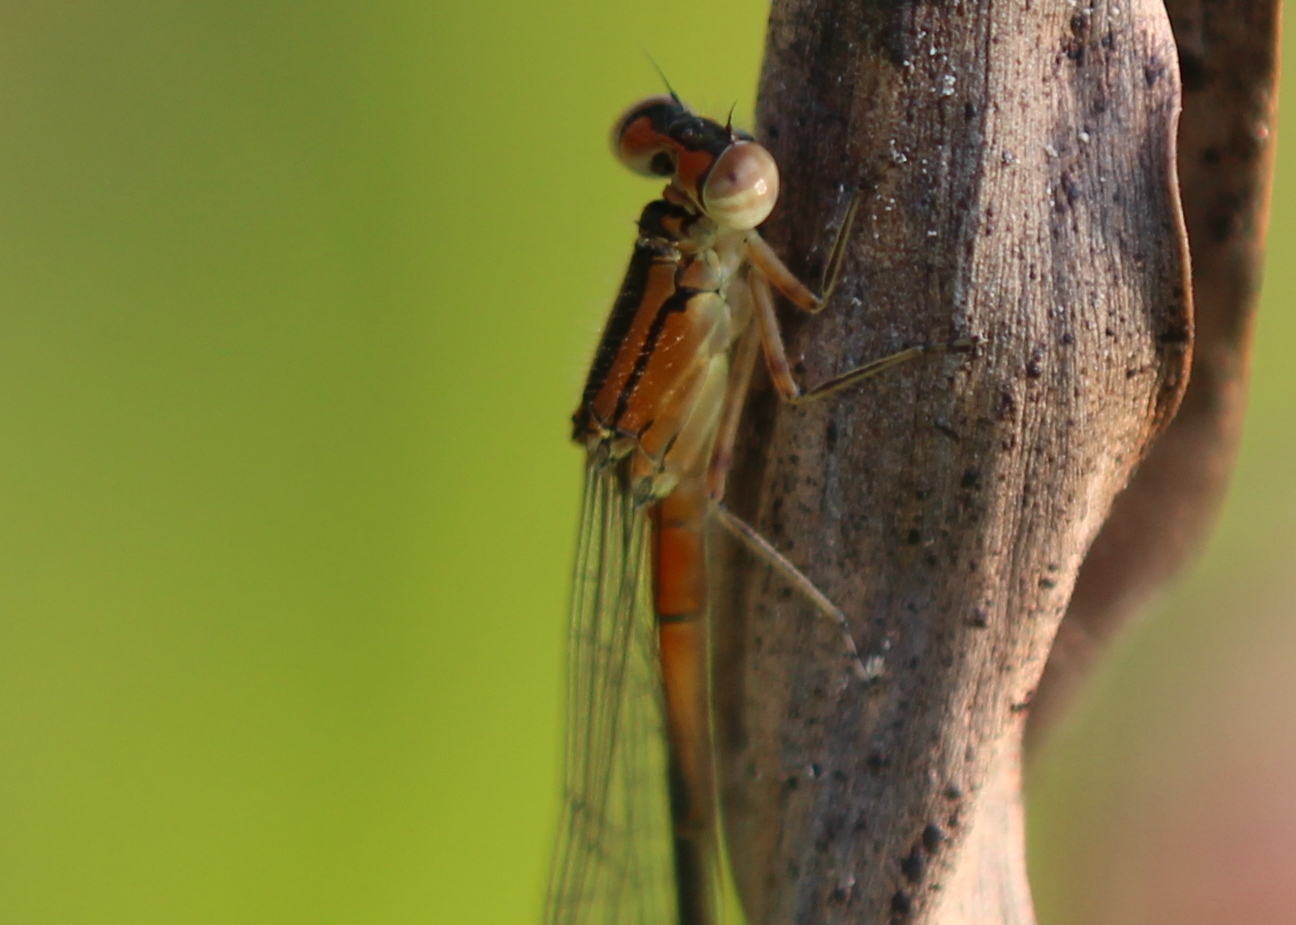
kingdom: Animalia
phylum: Arthropoda
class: Insecta
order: Odonata
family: Coenagrionidae
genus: Ischnura
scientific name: Ischnura verticalis
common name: Eastern forktail
